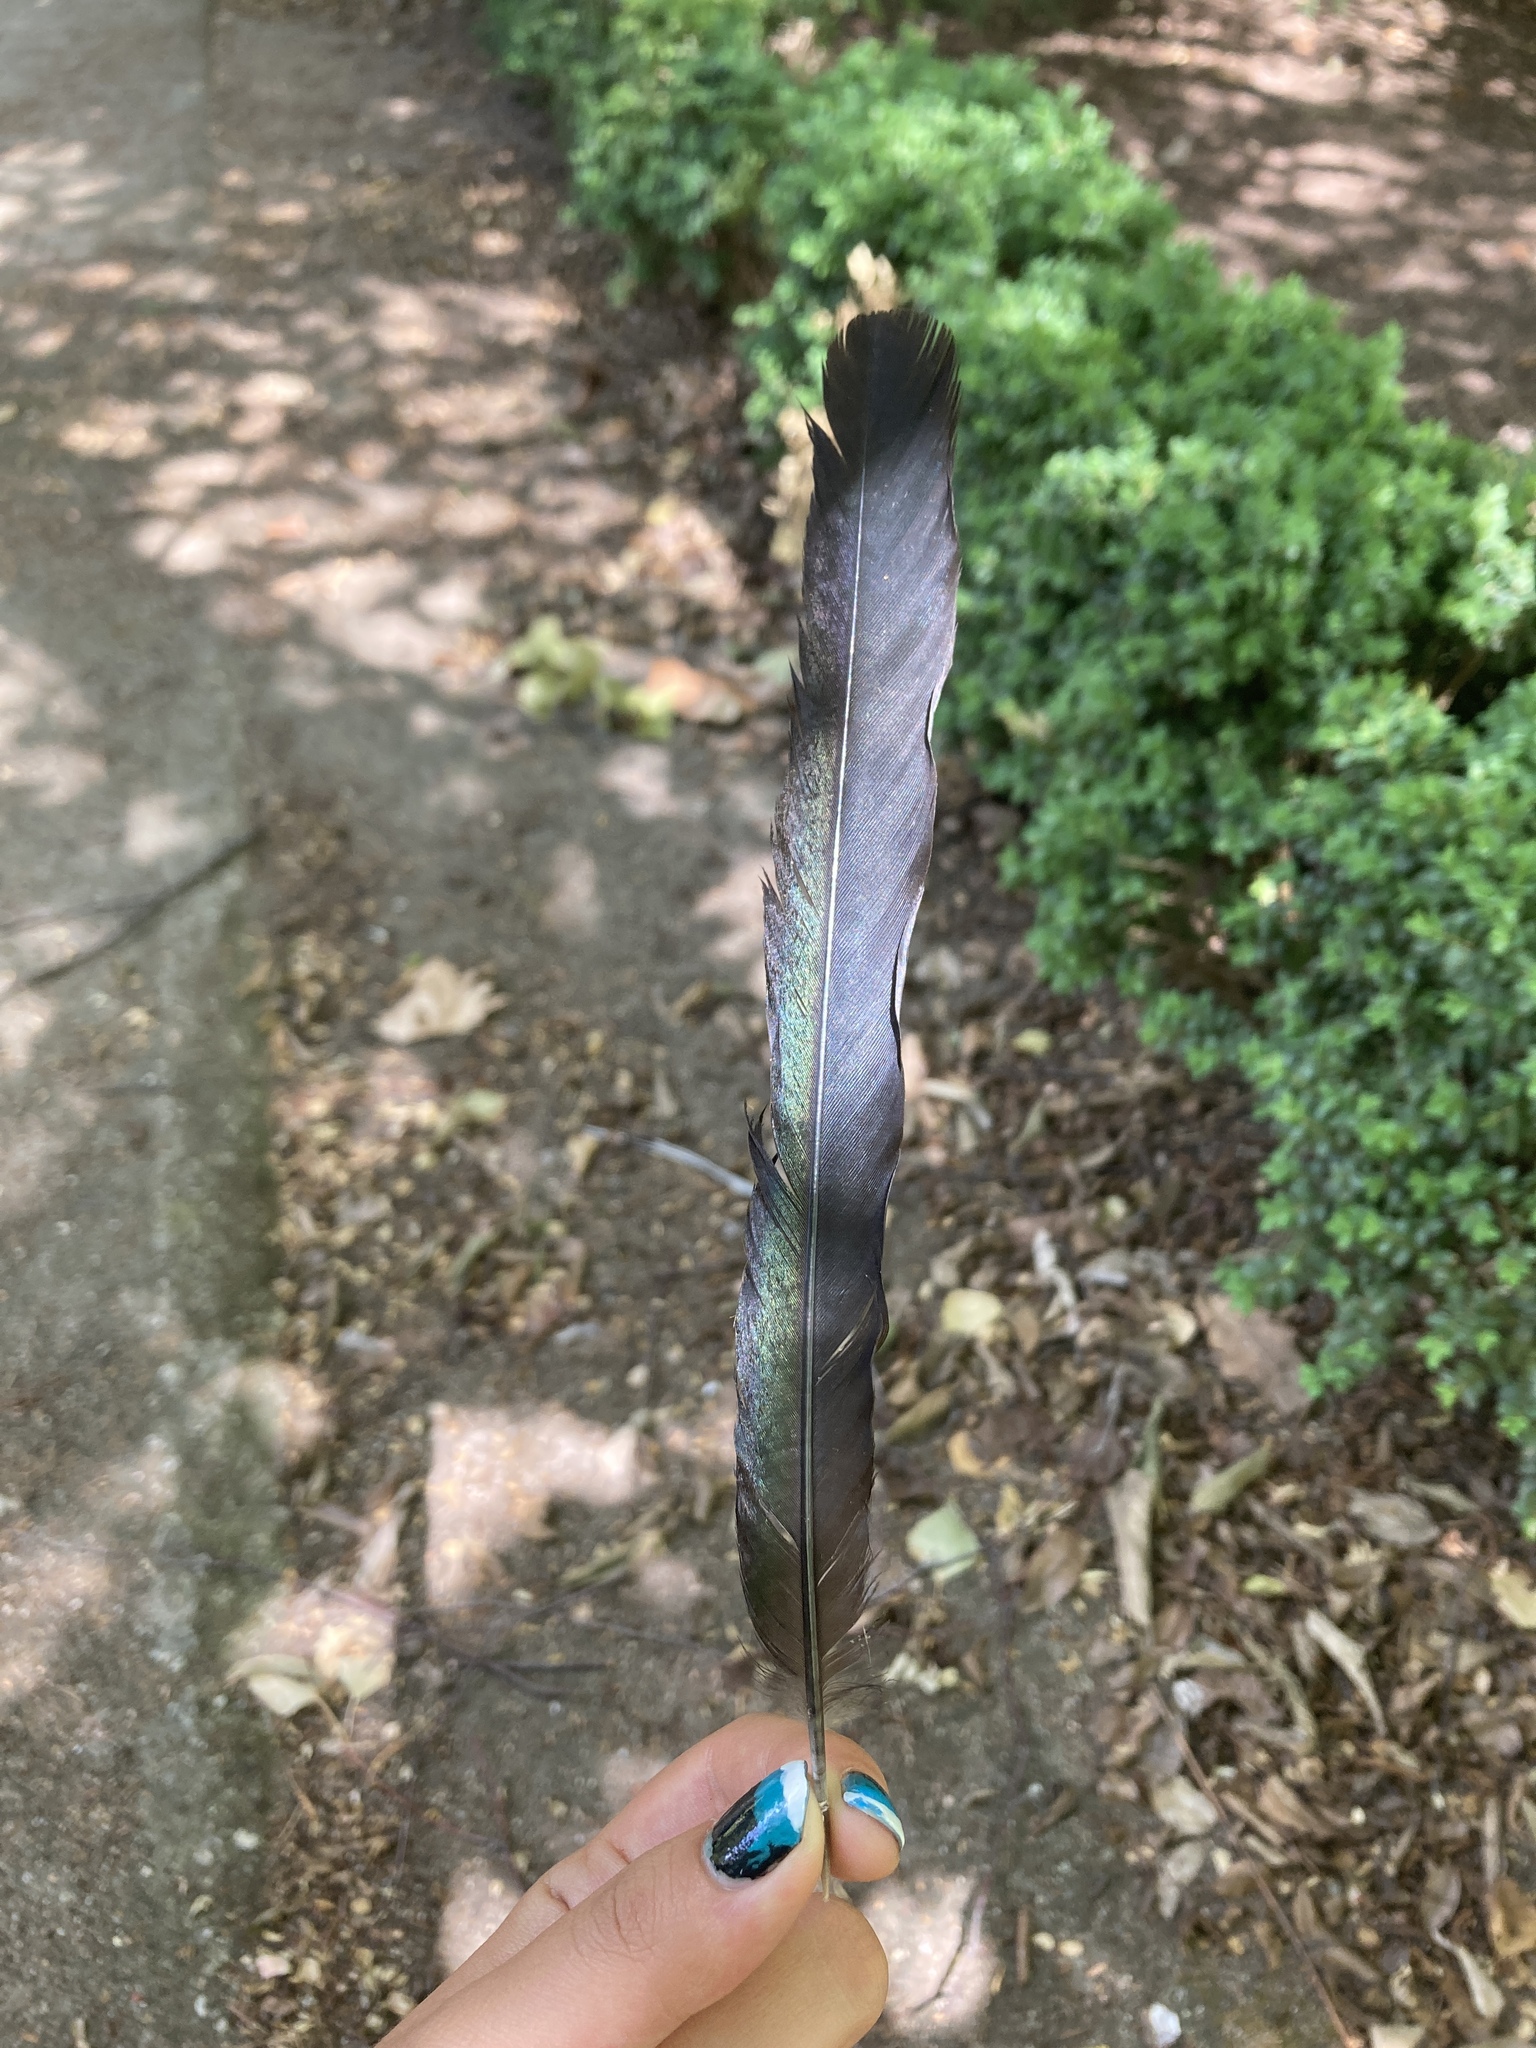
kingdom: Animalia
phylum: Chordata
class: Aves
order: Passeriformes
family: Corvidae
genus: Pica
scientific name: Pica pica
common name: Eurasian magpie
